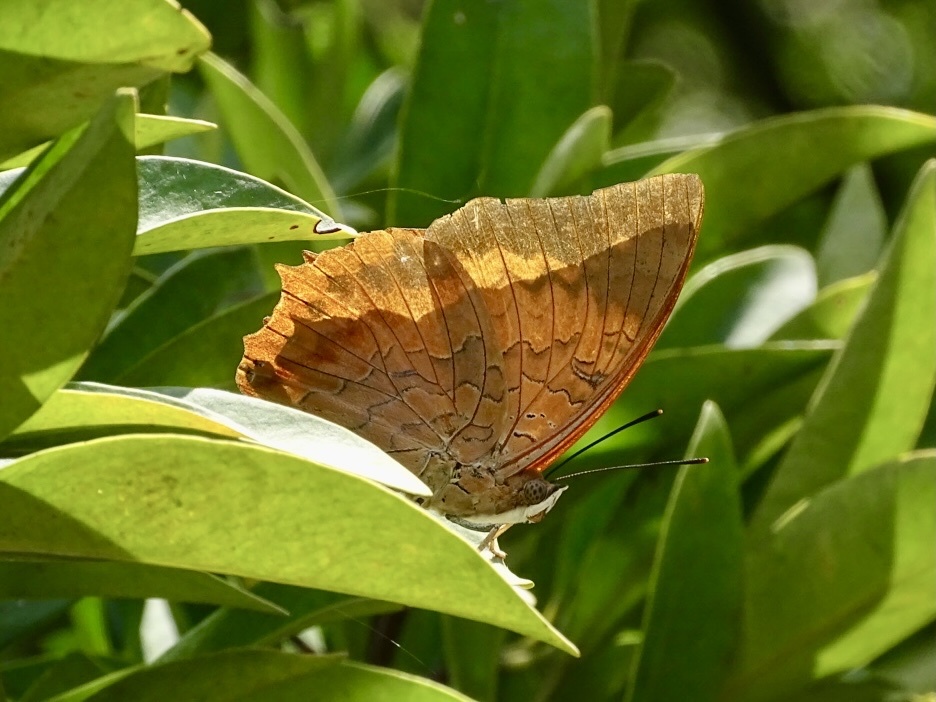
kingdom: Animalia
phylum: Arthropoda
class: Insecta
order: Lepidoptera
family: Nymphalidae
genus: Charaxes
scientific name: Charaxes bernardus
